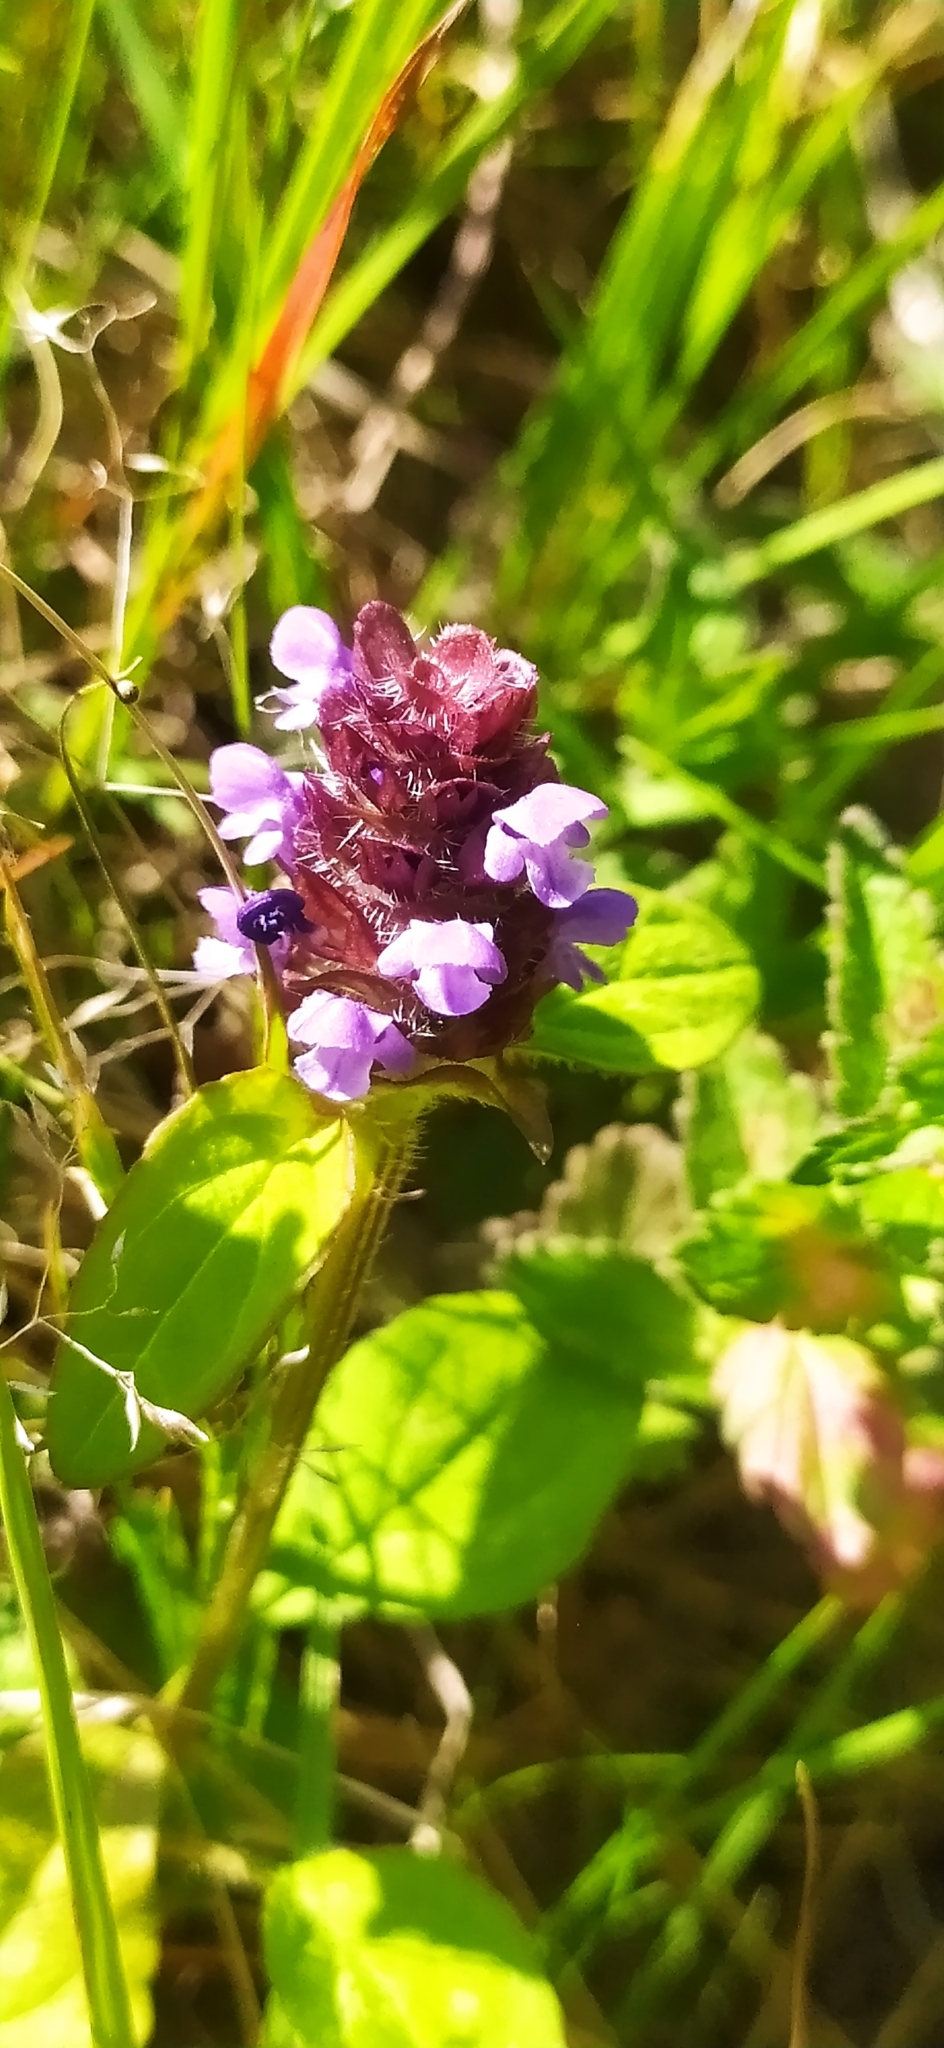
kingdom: Plantae
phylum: Tracheophyta
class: Magnoliopsida
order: Lamiales
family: Lamiaceae
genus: Prunella
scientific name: Prunella vulgaris
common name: Heal-all
